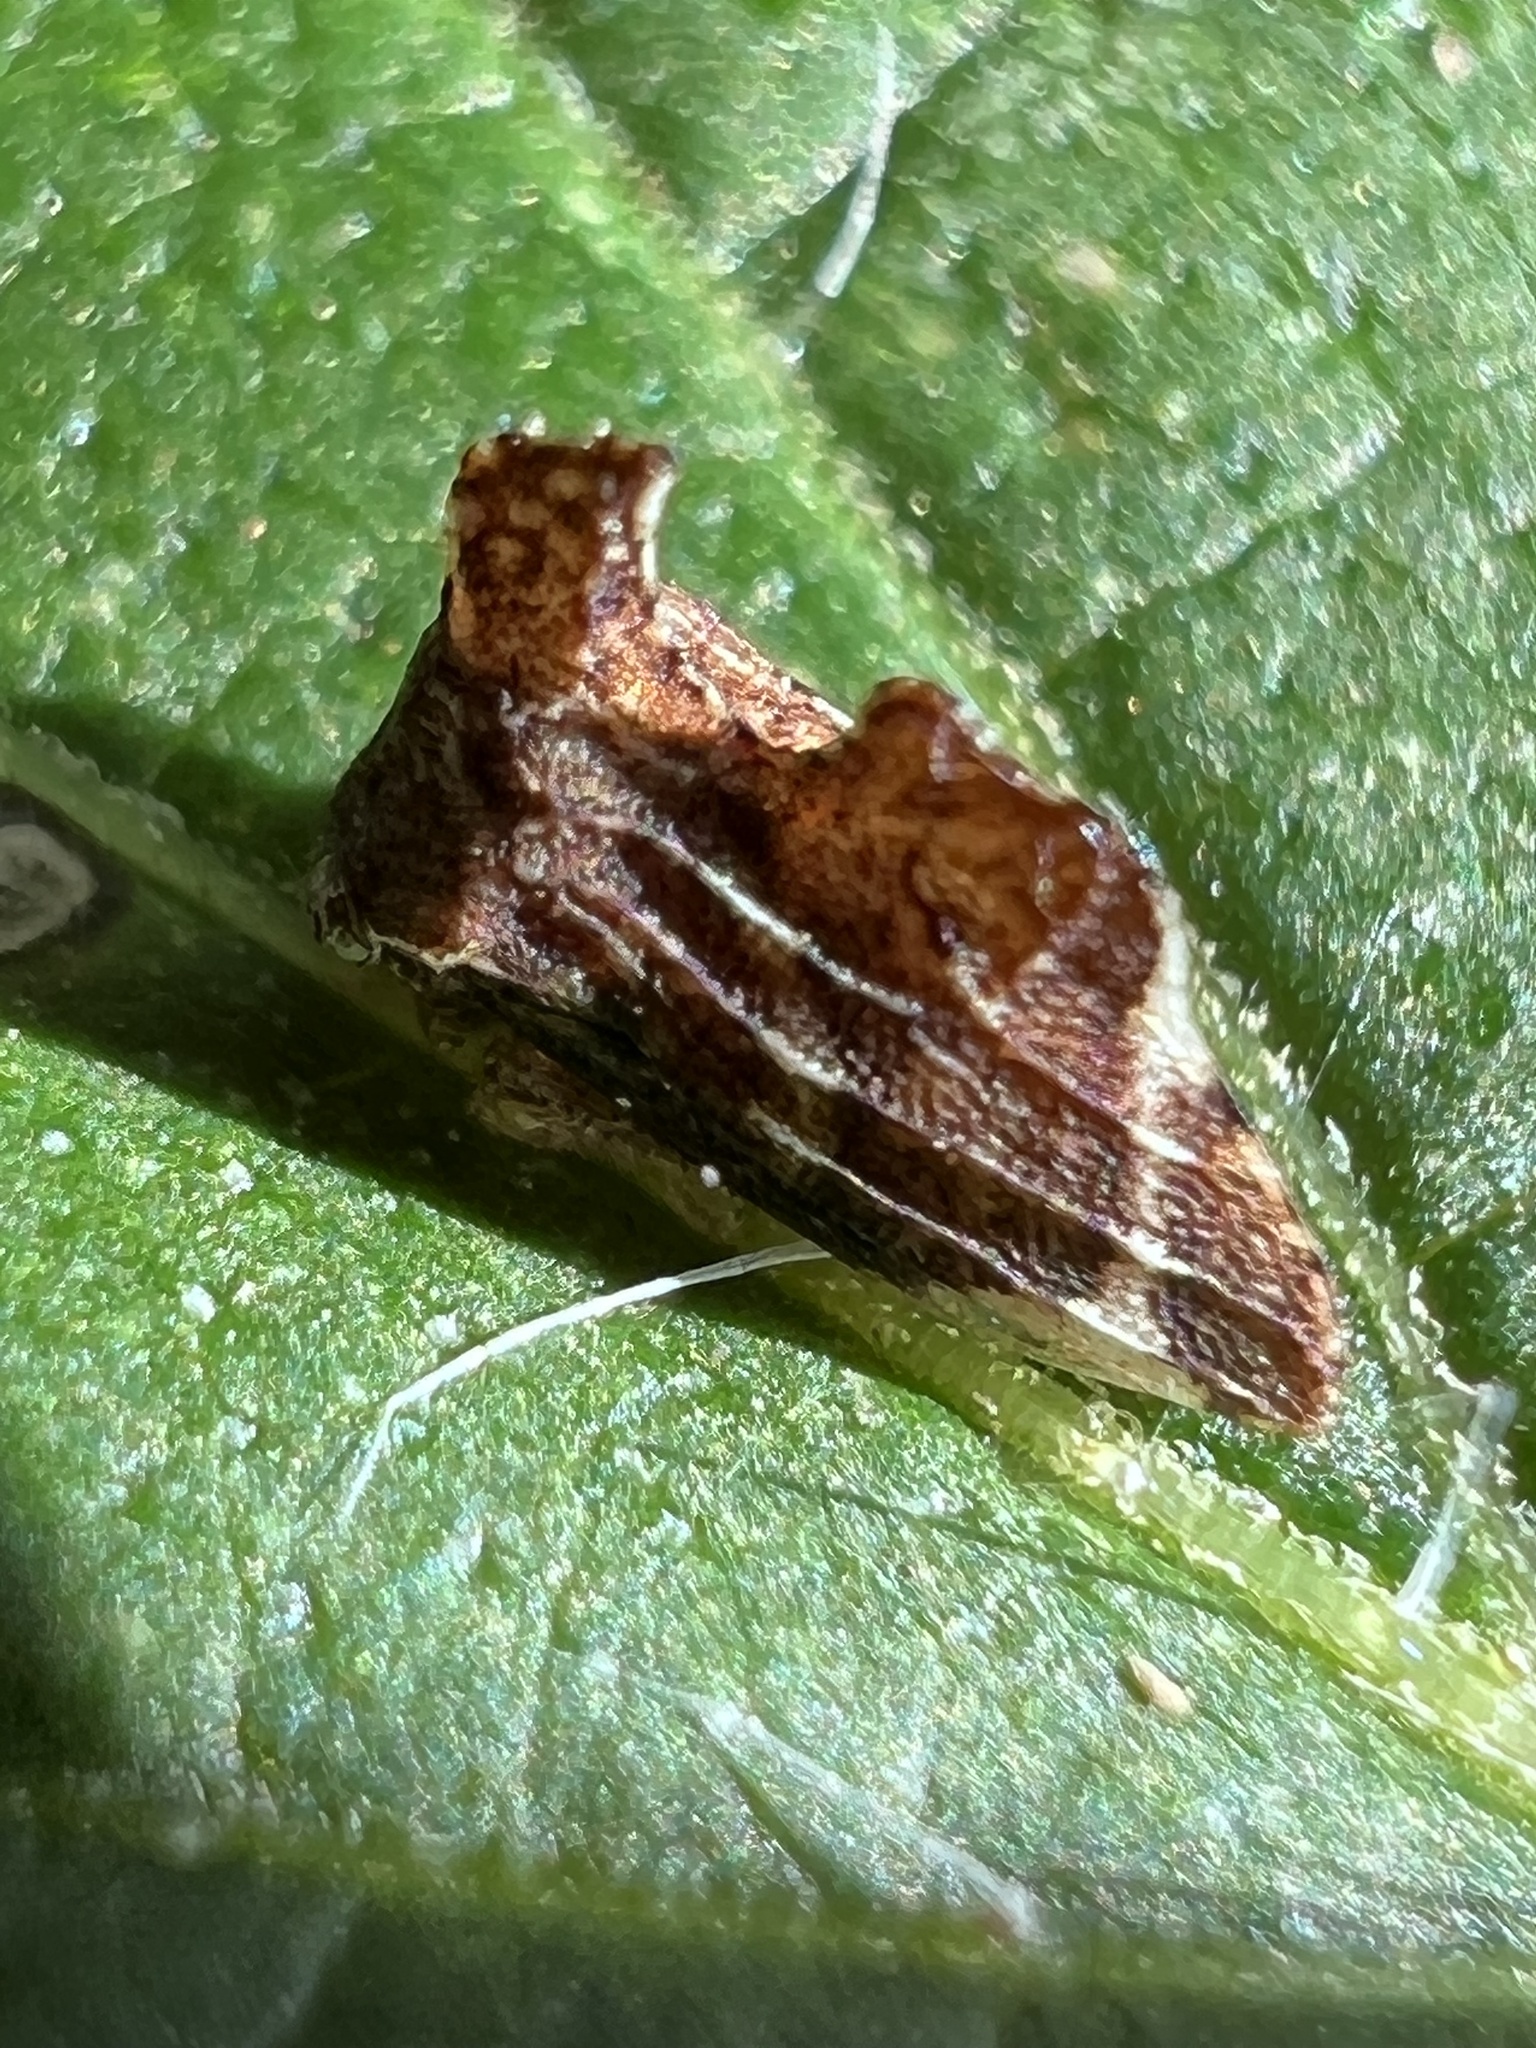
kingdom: Animalia
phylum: Arthropoda
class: Insecta
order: Hemiptera
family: Membracidae
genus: Entylia
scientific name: Entylia carinata
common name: Keeled treehopper
